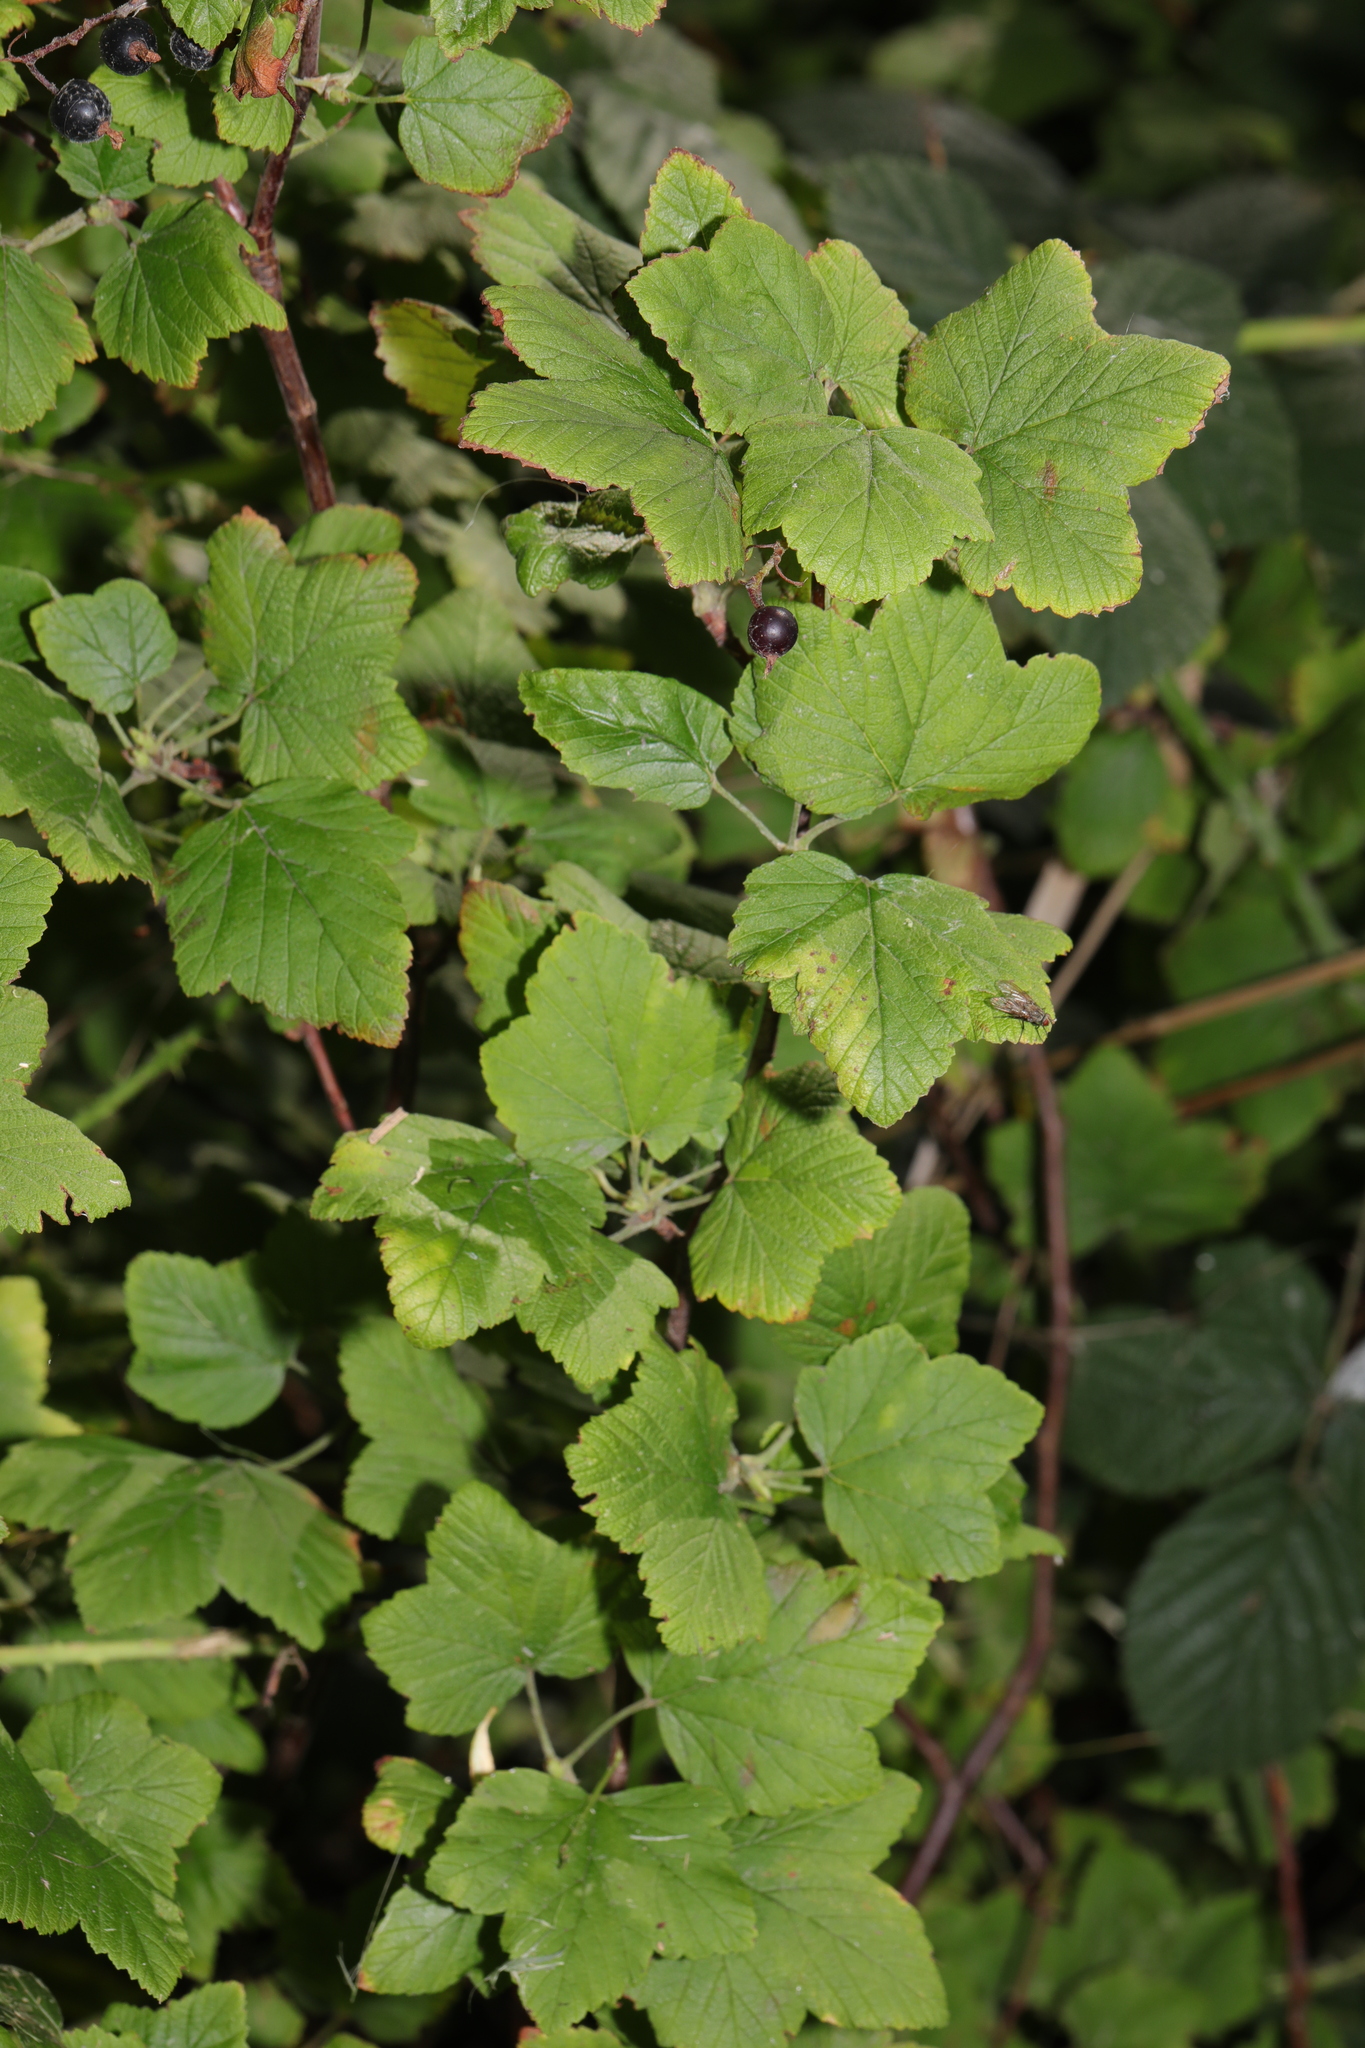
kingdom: Plantae
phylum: Tracheophyta
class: Magnoliopsida
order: Saxifragales
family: Grossulariaceae
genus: Ribes
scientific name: Ribes sanguineum
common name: Flowering currant
